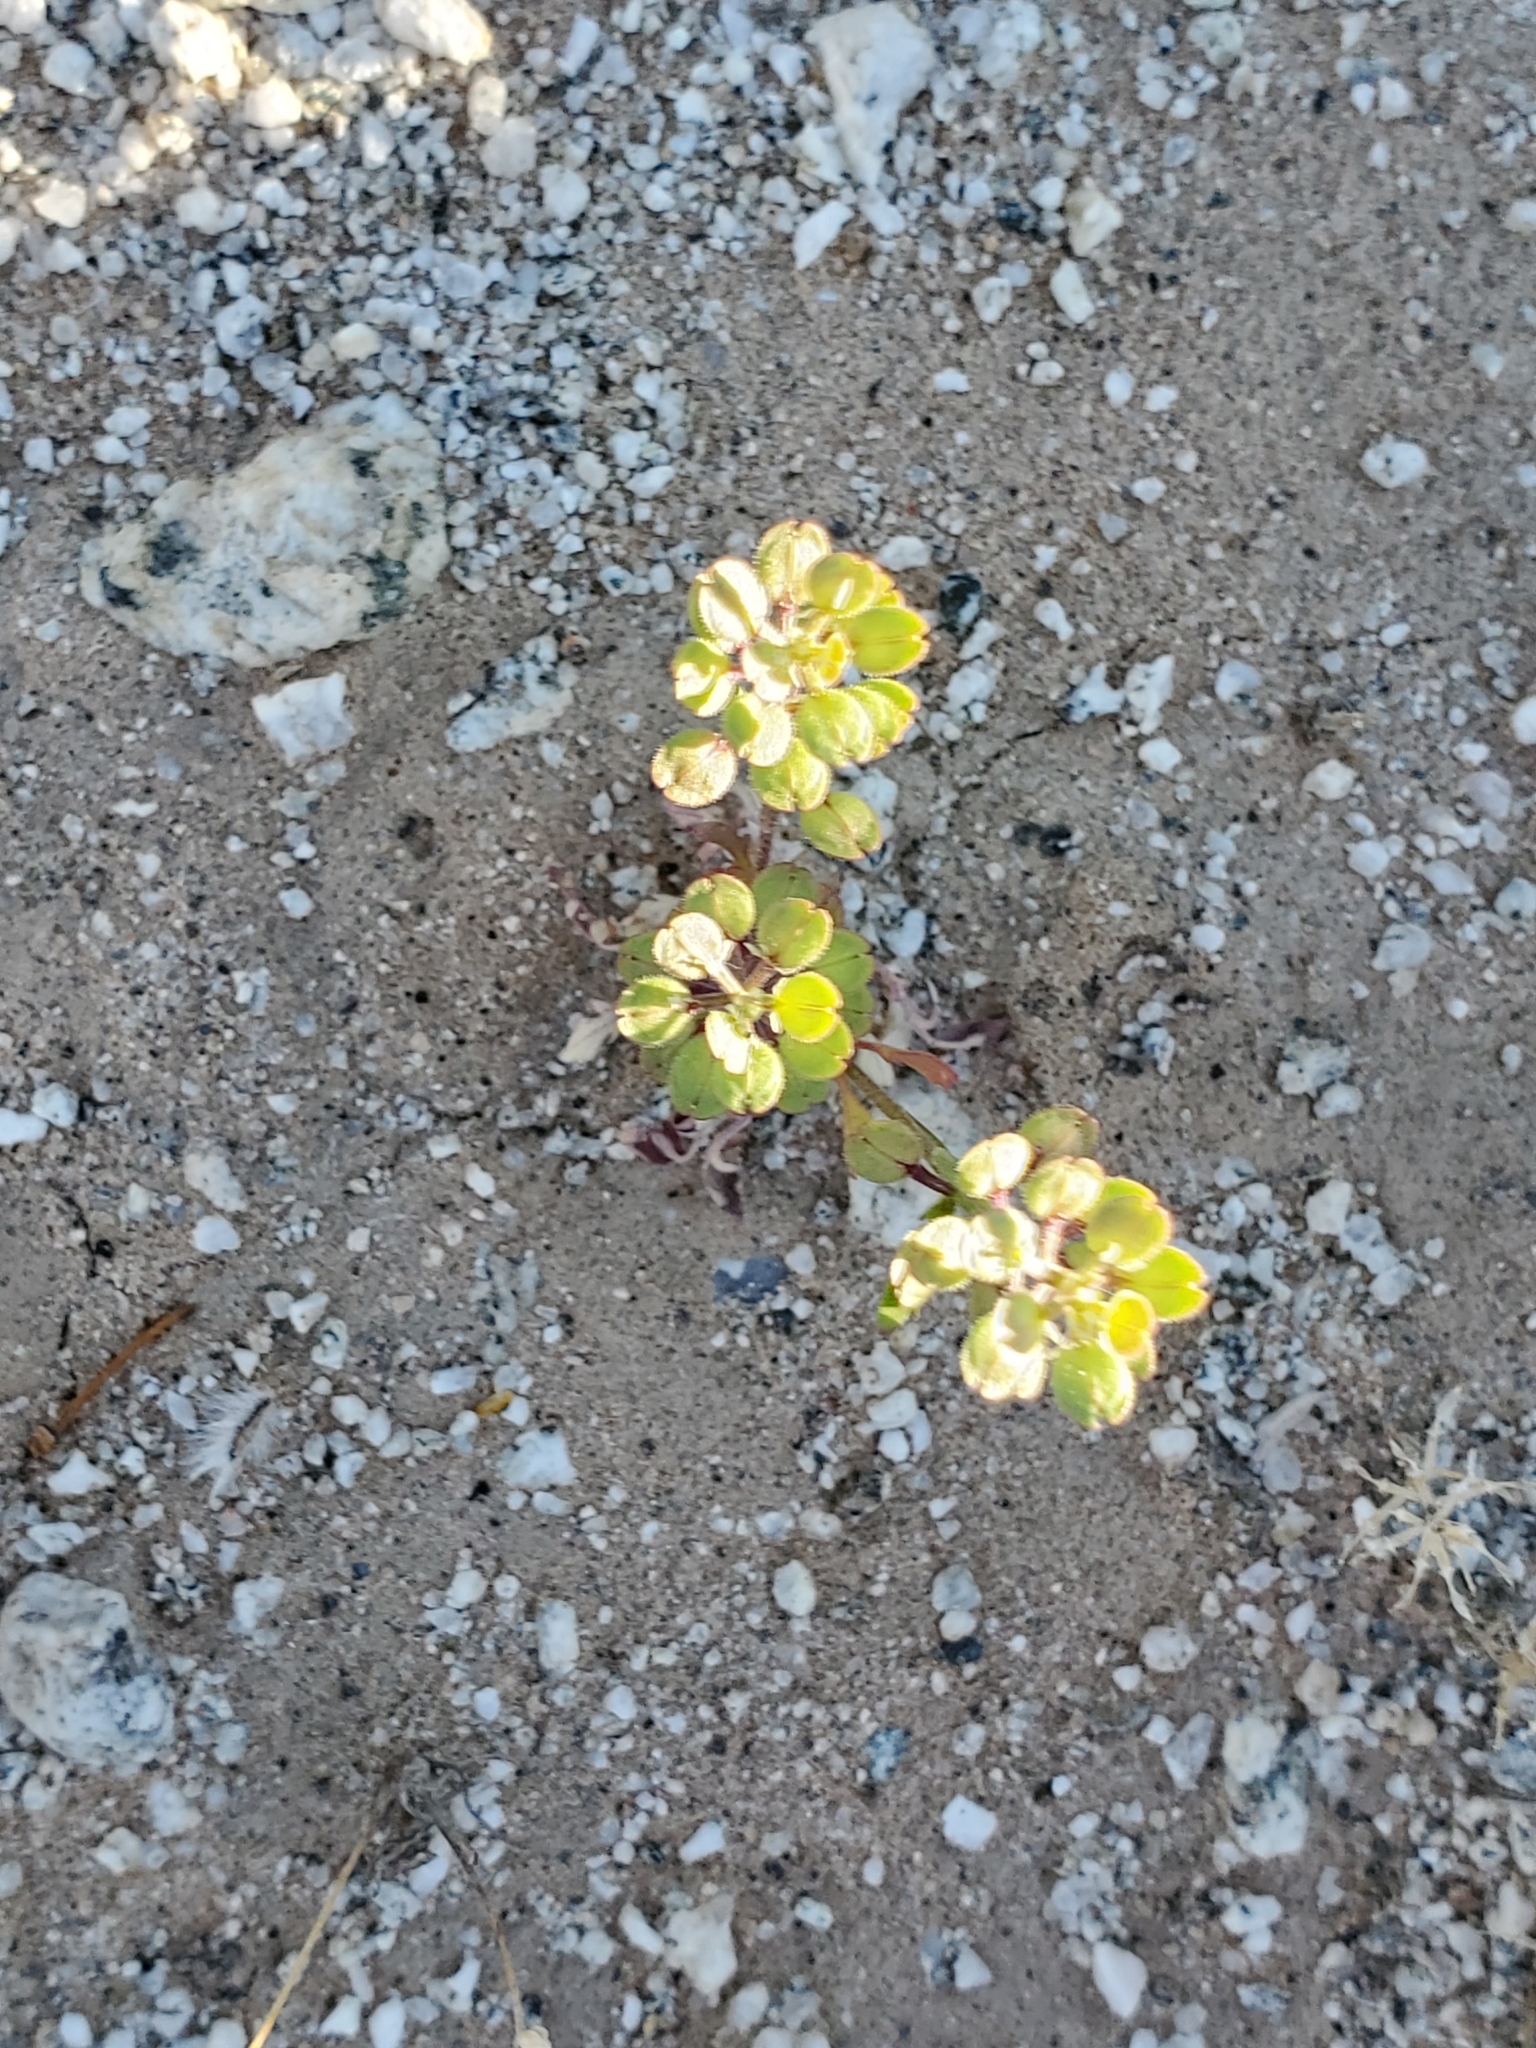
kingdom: Plantae
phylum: Tracheophyta
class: Magnoliopsida
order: Brassicales
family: Brassicaceae
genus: Lepidium
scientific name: Lepidium lasiocarpum
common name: Hairy-pod pepperwort
